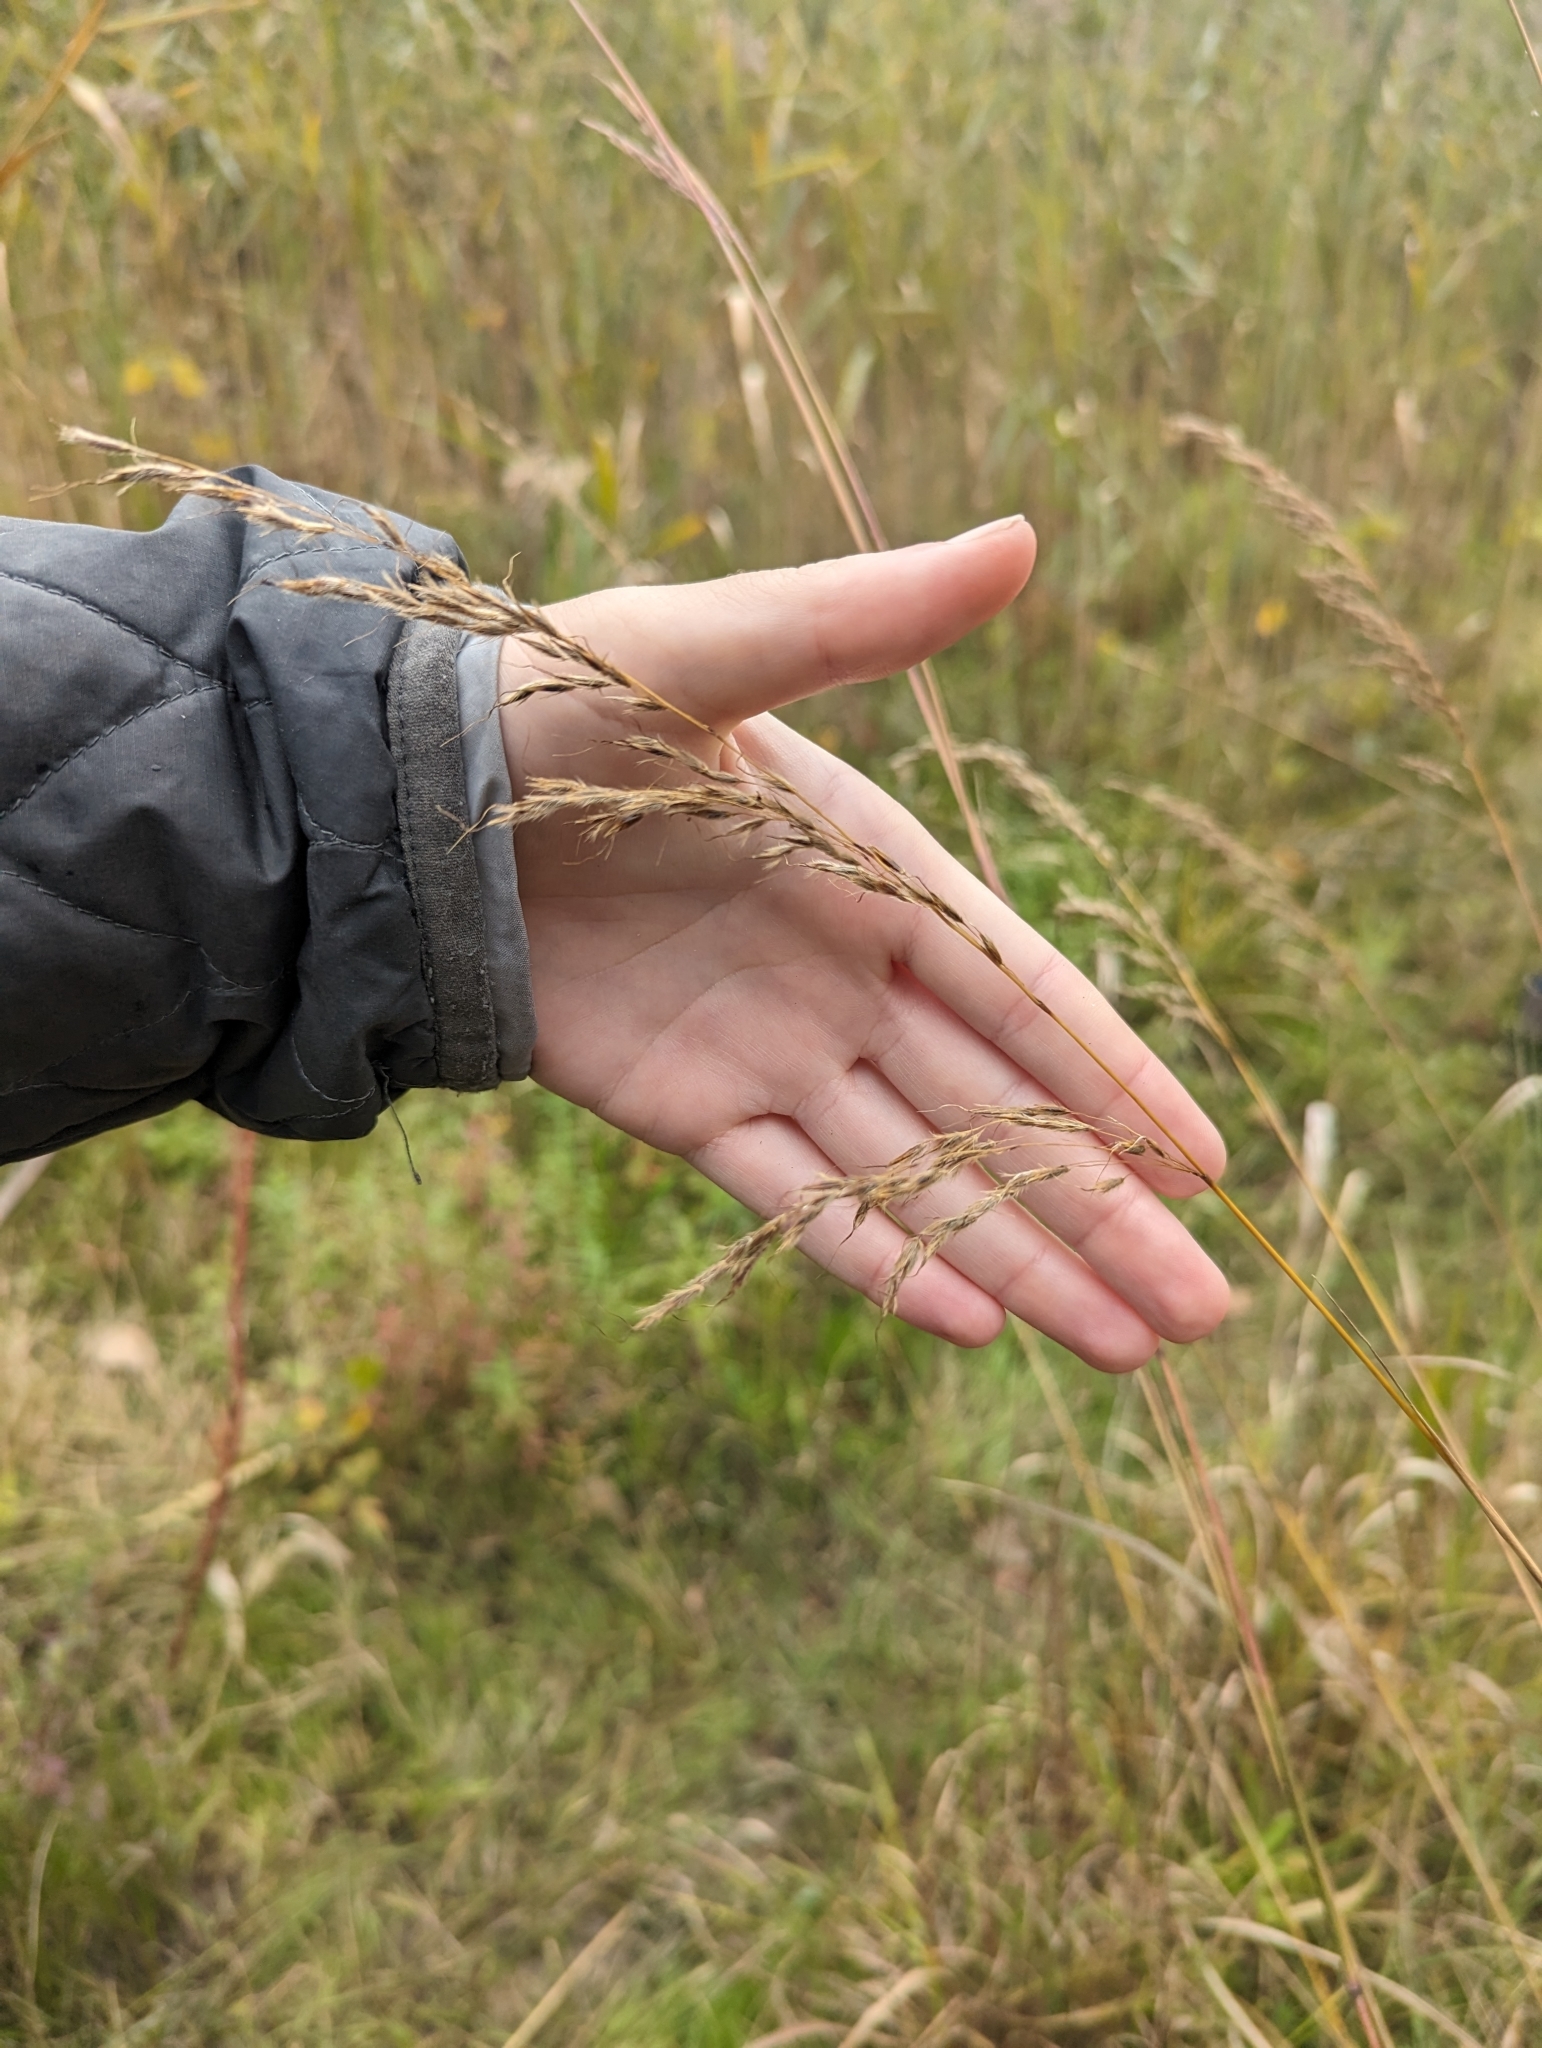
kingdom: Plantae
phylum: Tracheophyta
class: Liliopsida
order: Poales
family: Poaceae
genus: Sorghastrum
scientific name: Sorghastrum nutans
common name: Indian grass
